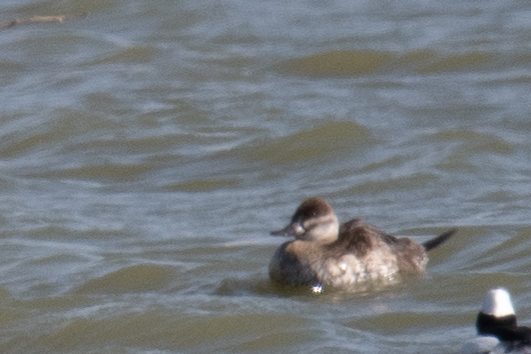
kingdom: Animalia
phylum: Chordata
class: Aves
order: Anseriformes
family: Anatidae
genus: Oxyura
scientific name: Oxyura jamaicensis
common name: Ruddy duck
